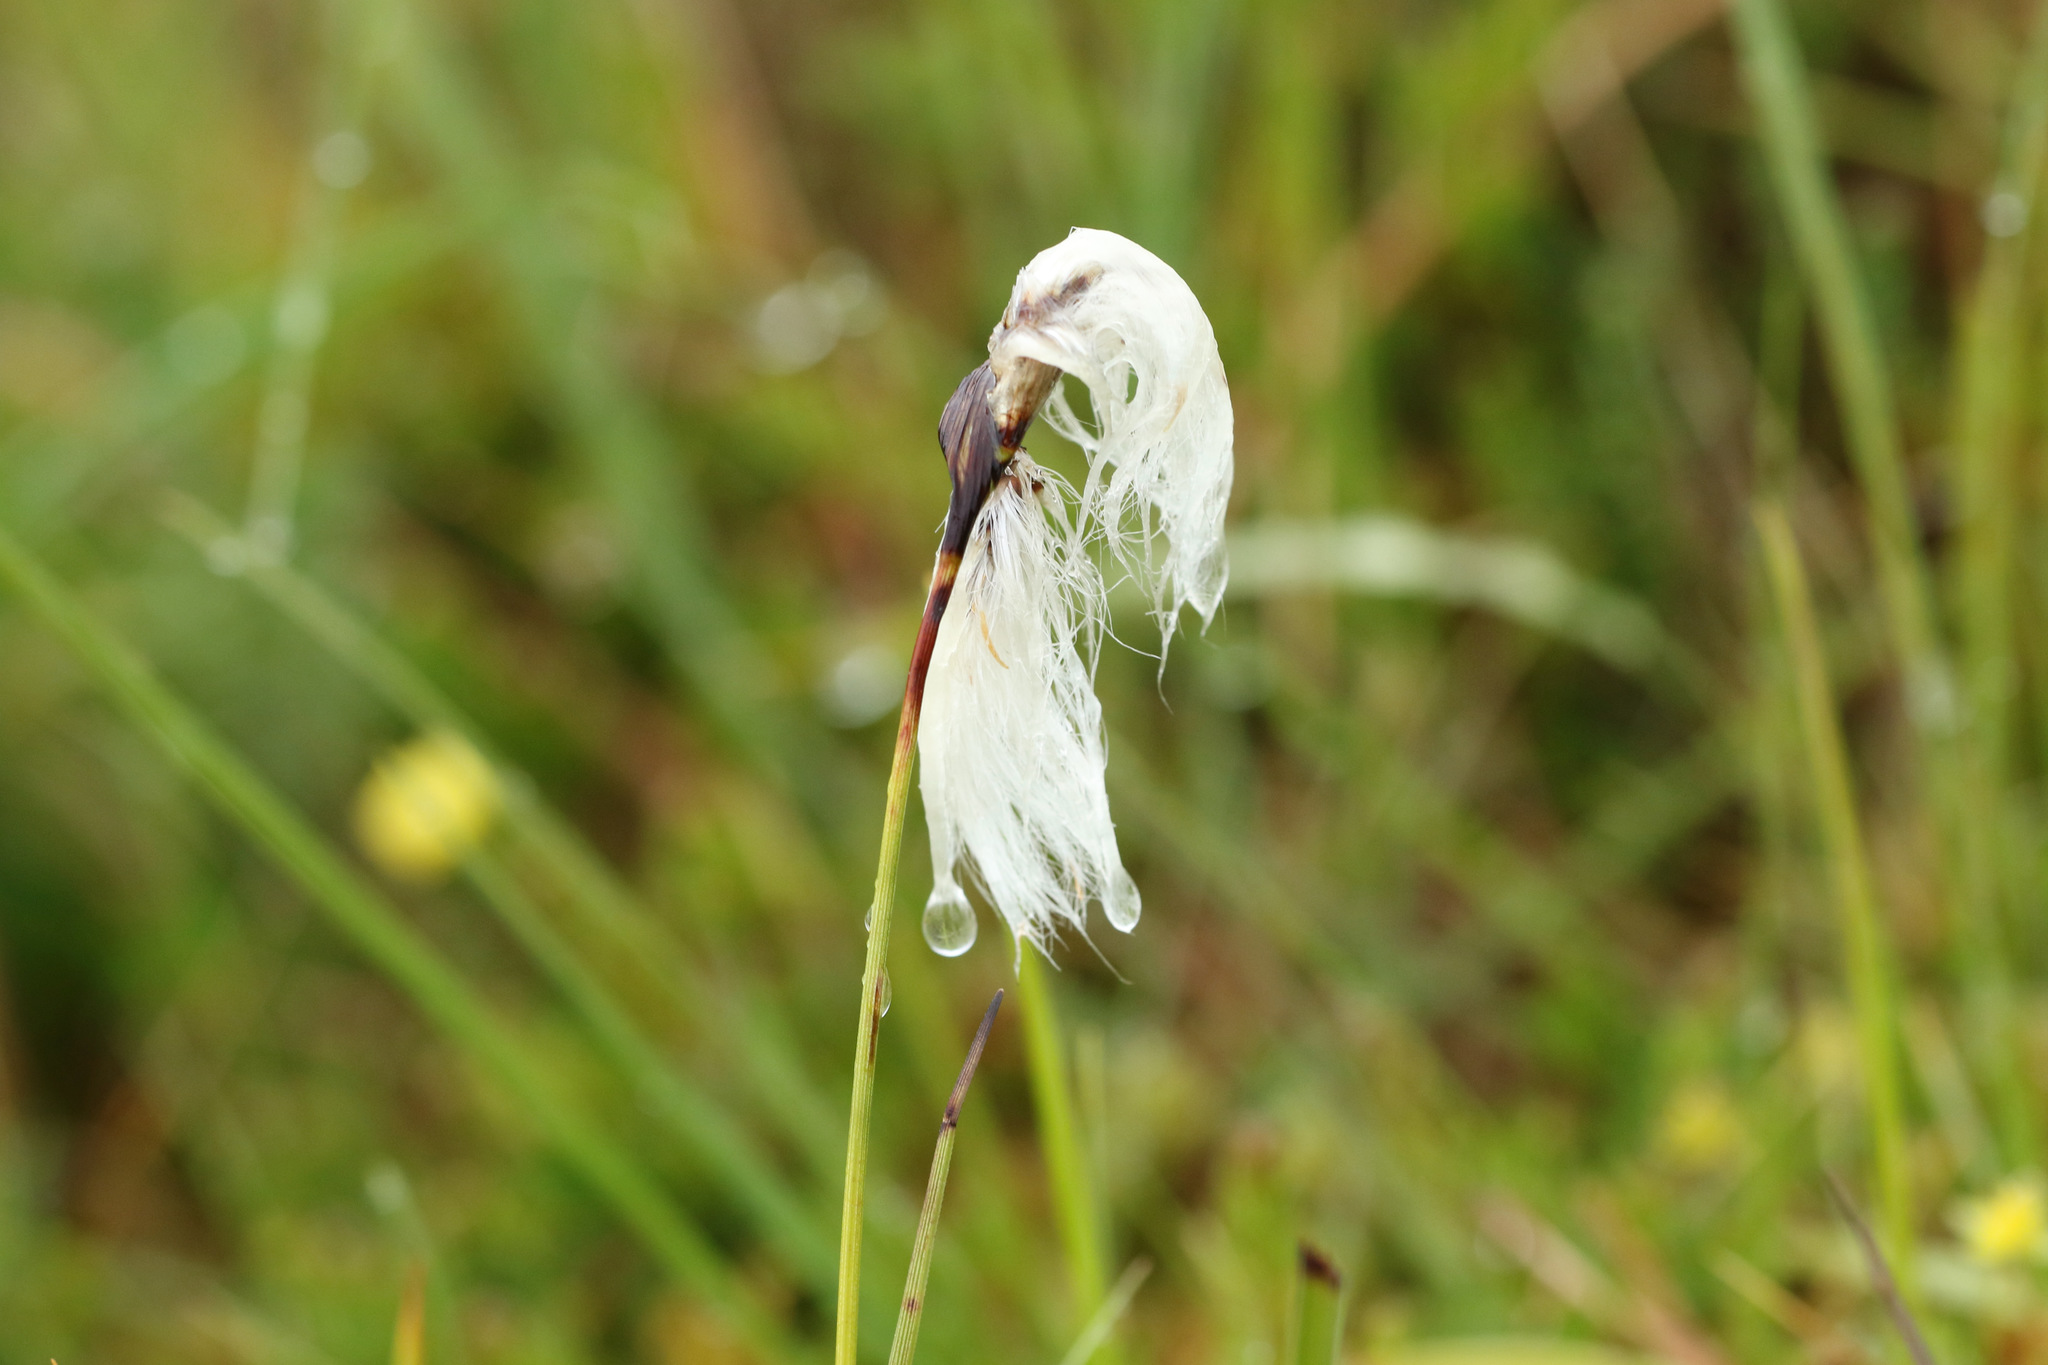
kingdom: Plantae
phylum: Tracheophyta
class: Liliopsida
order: Poales
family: Cyperaceae
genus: Eriophorum
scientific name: Eriophorum angustifolium
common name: Common cottongrass
